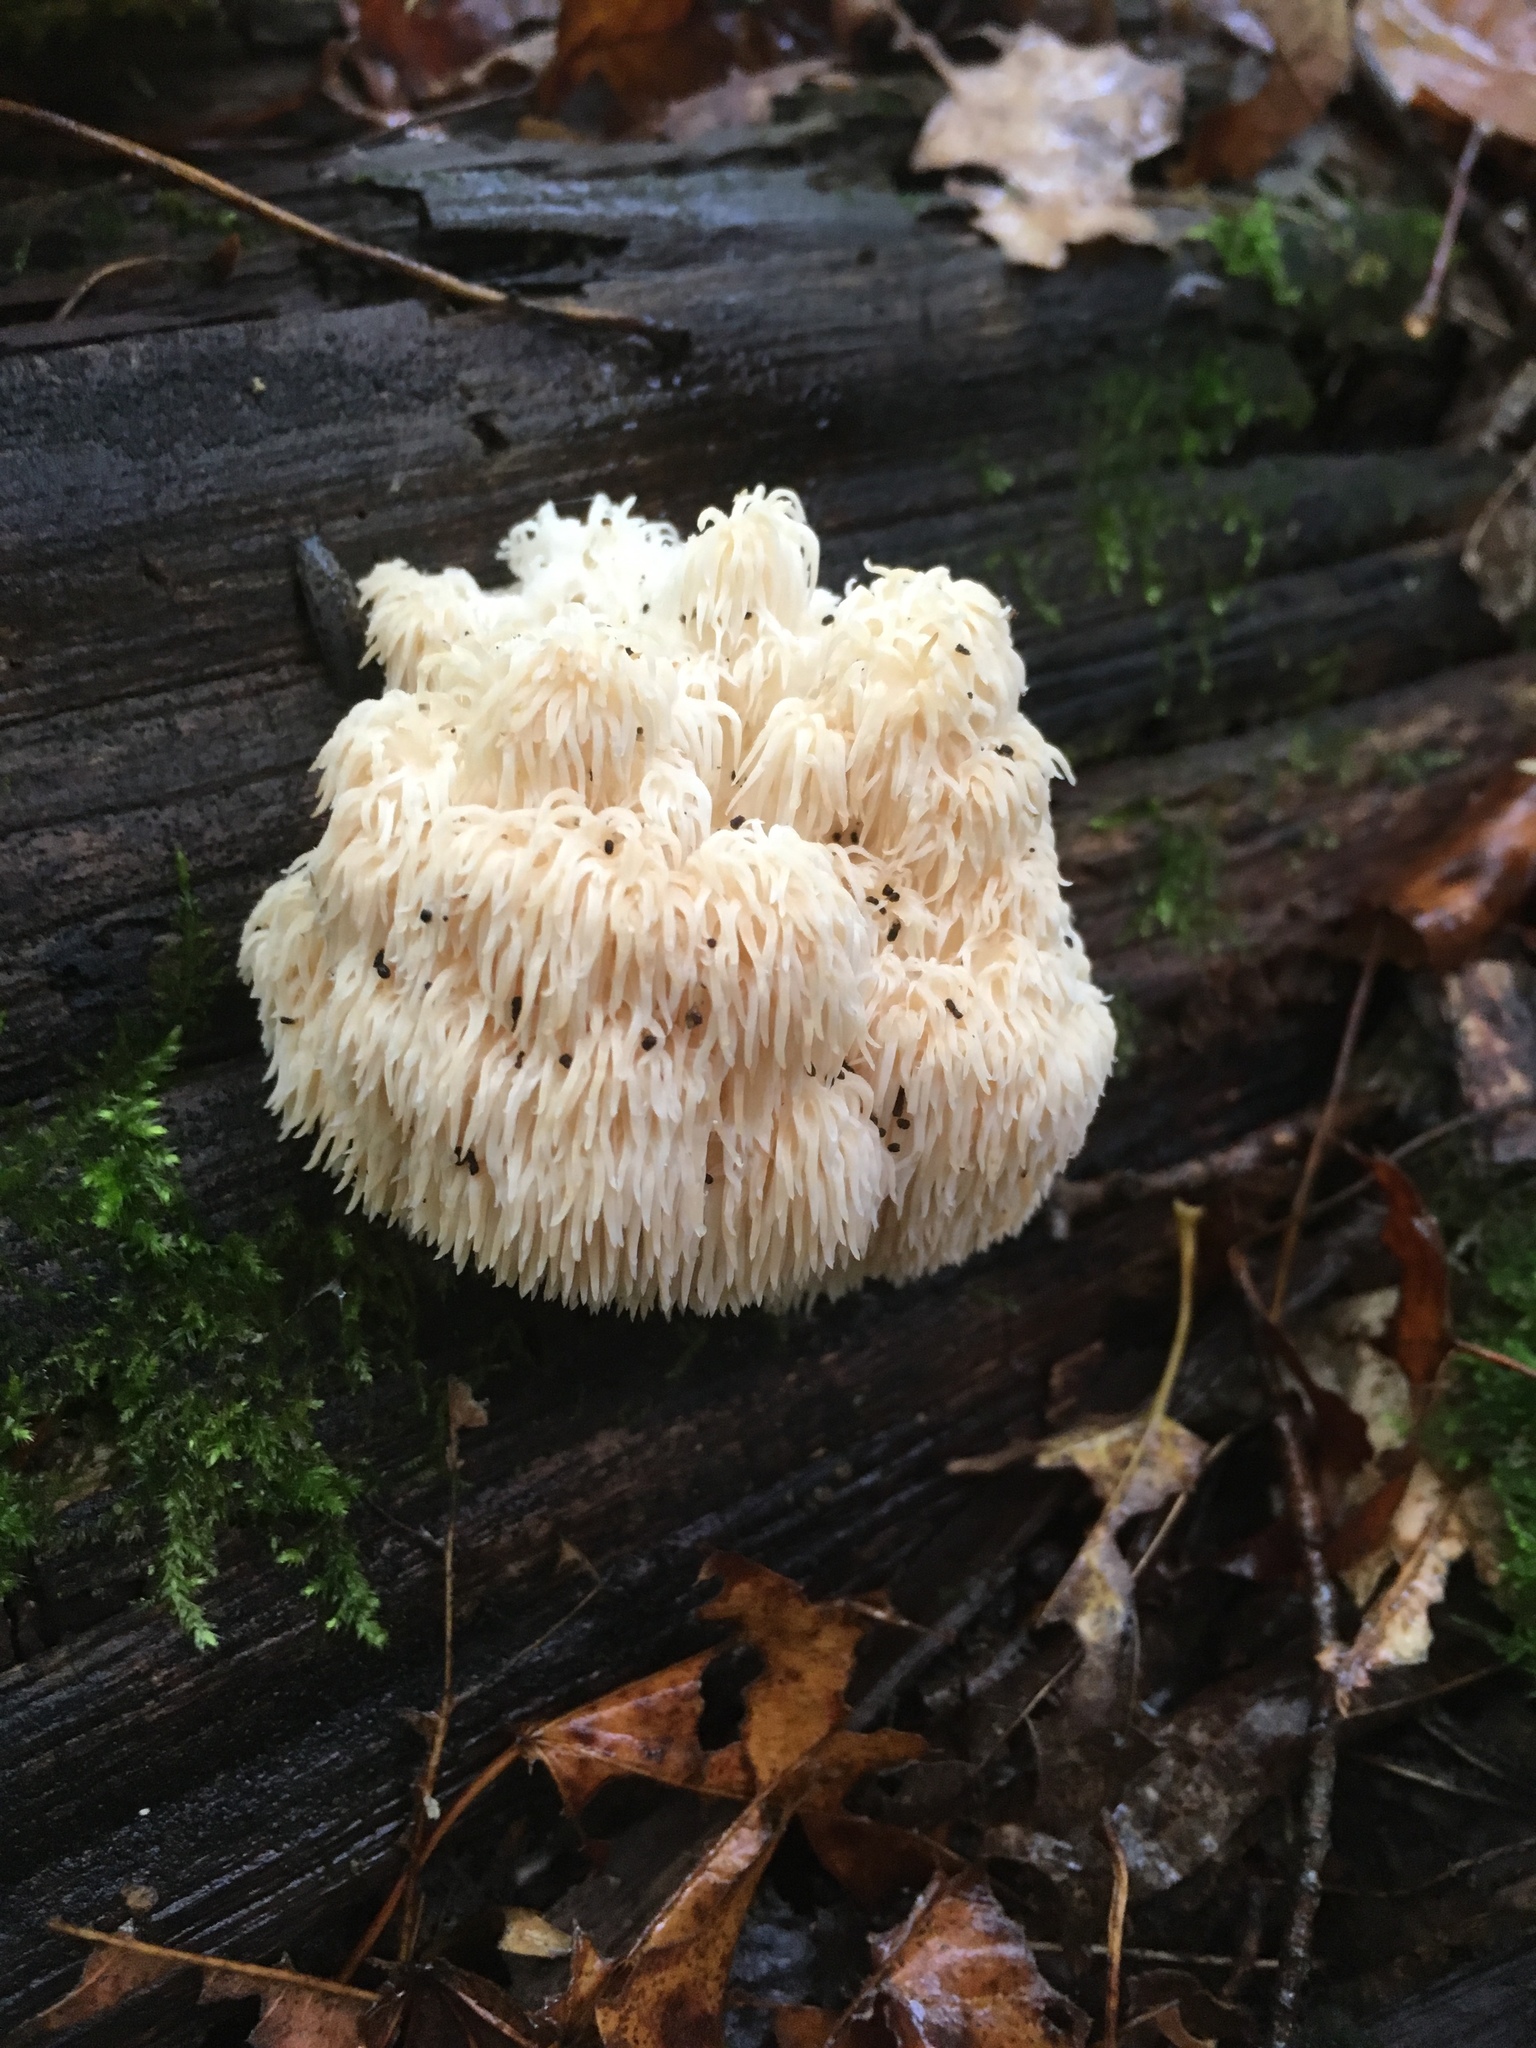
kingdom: Fungi
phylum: Basidiomycota
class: Agaricomycetes
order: Russulales
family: Hericiaceae
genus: Hericium
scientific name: Hericium americanum
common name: Bear's head tooth
